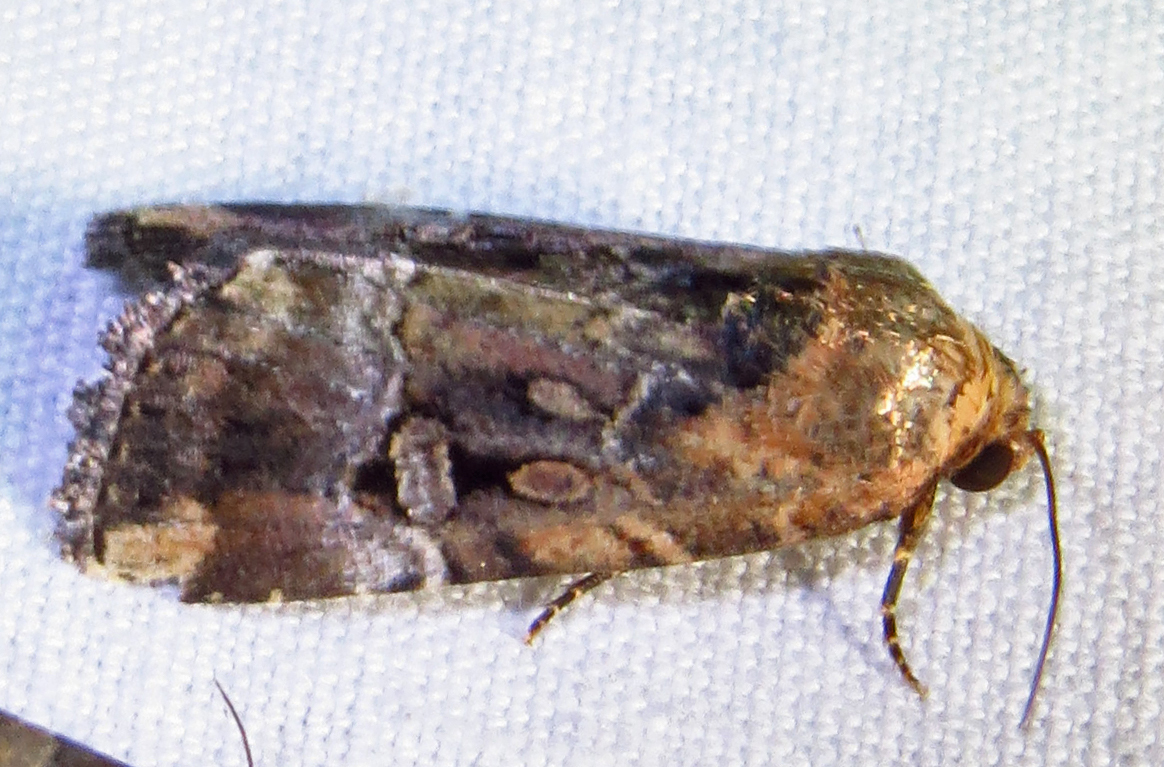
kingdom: Animalia
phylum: Arthropoda
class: Insecta
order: Lepidoptera
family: Noctuidae
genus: Elaphria
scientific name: Elaphria chalcedonia
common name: Chalcedony midget
